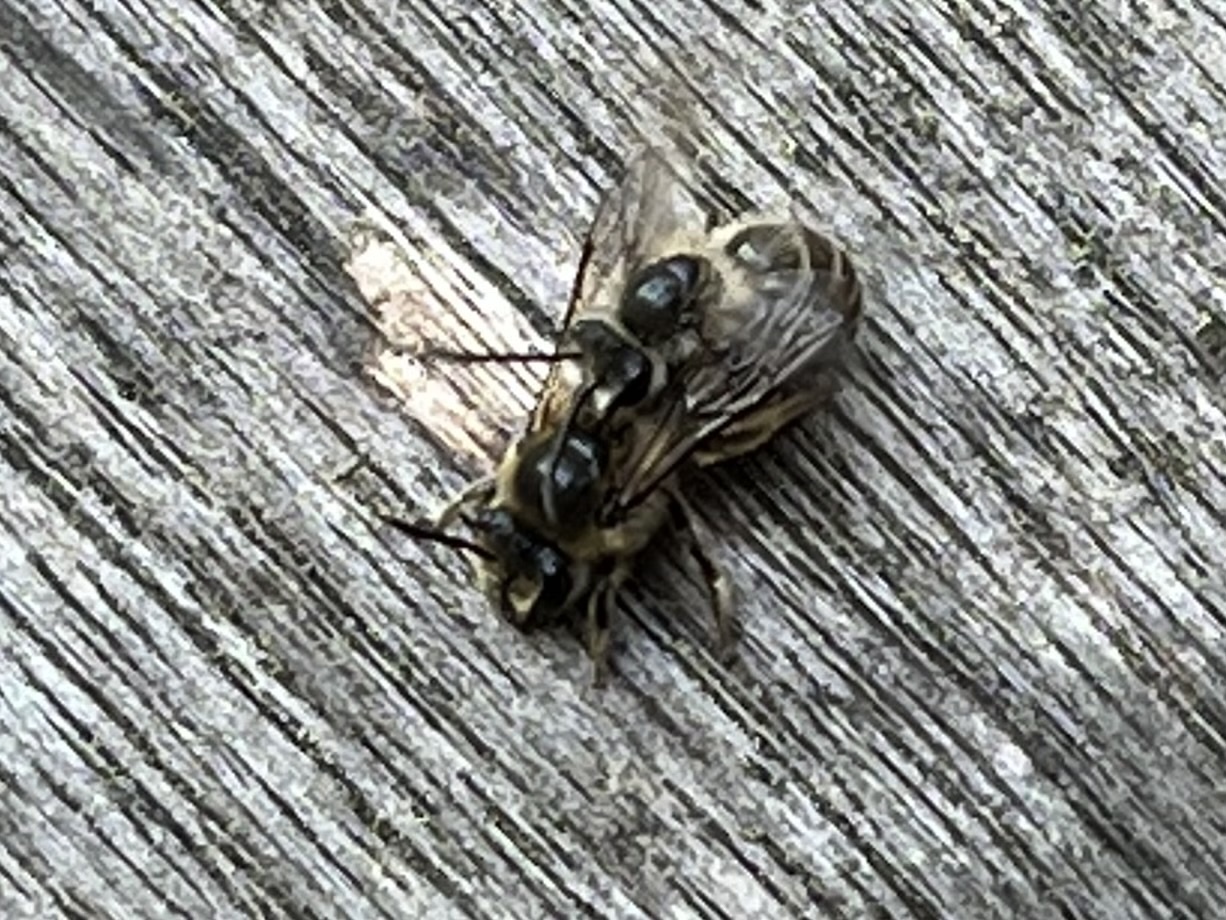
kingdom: Animalia
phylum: Arthropoda
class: Insecta
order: Hymenoptera
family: Colletidae
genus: Colletes
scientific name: Colletes inaequalis
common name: Unequal cellophane bee
